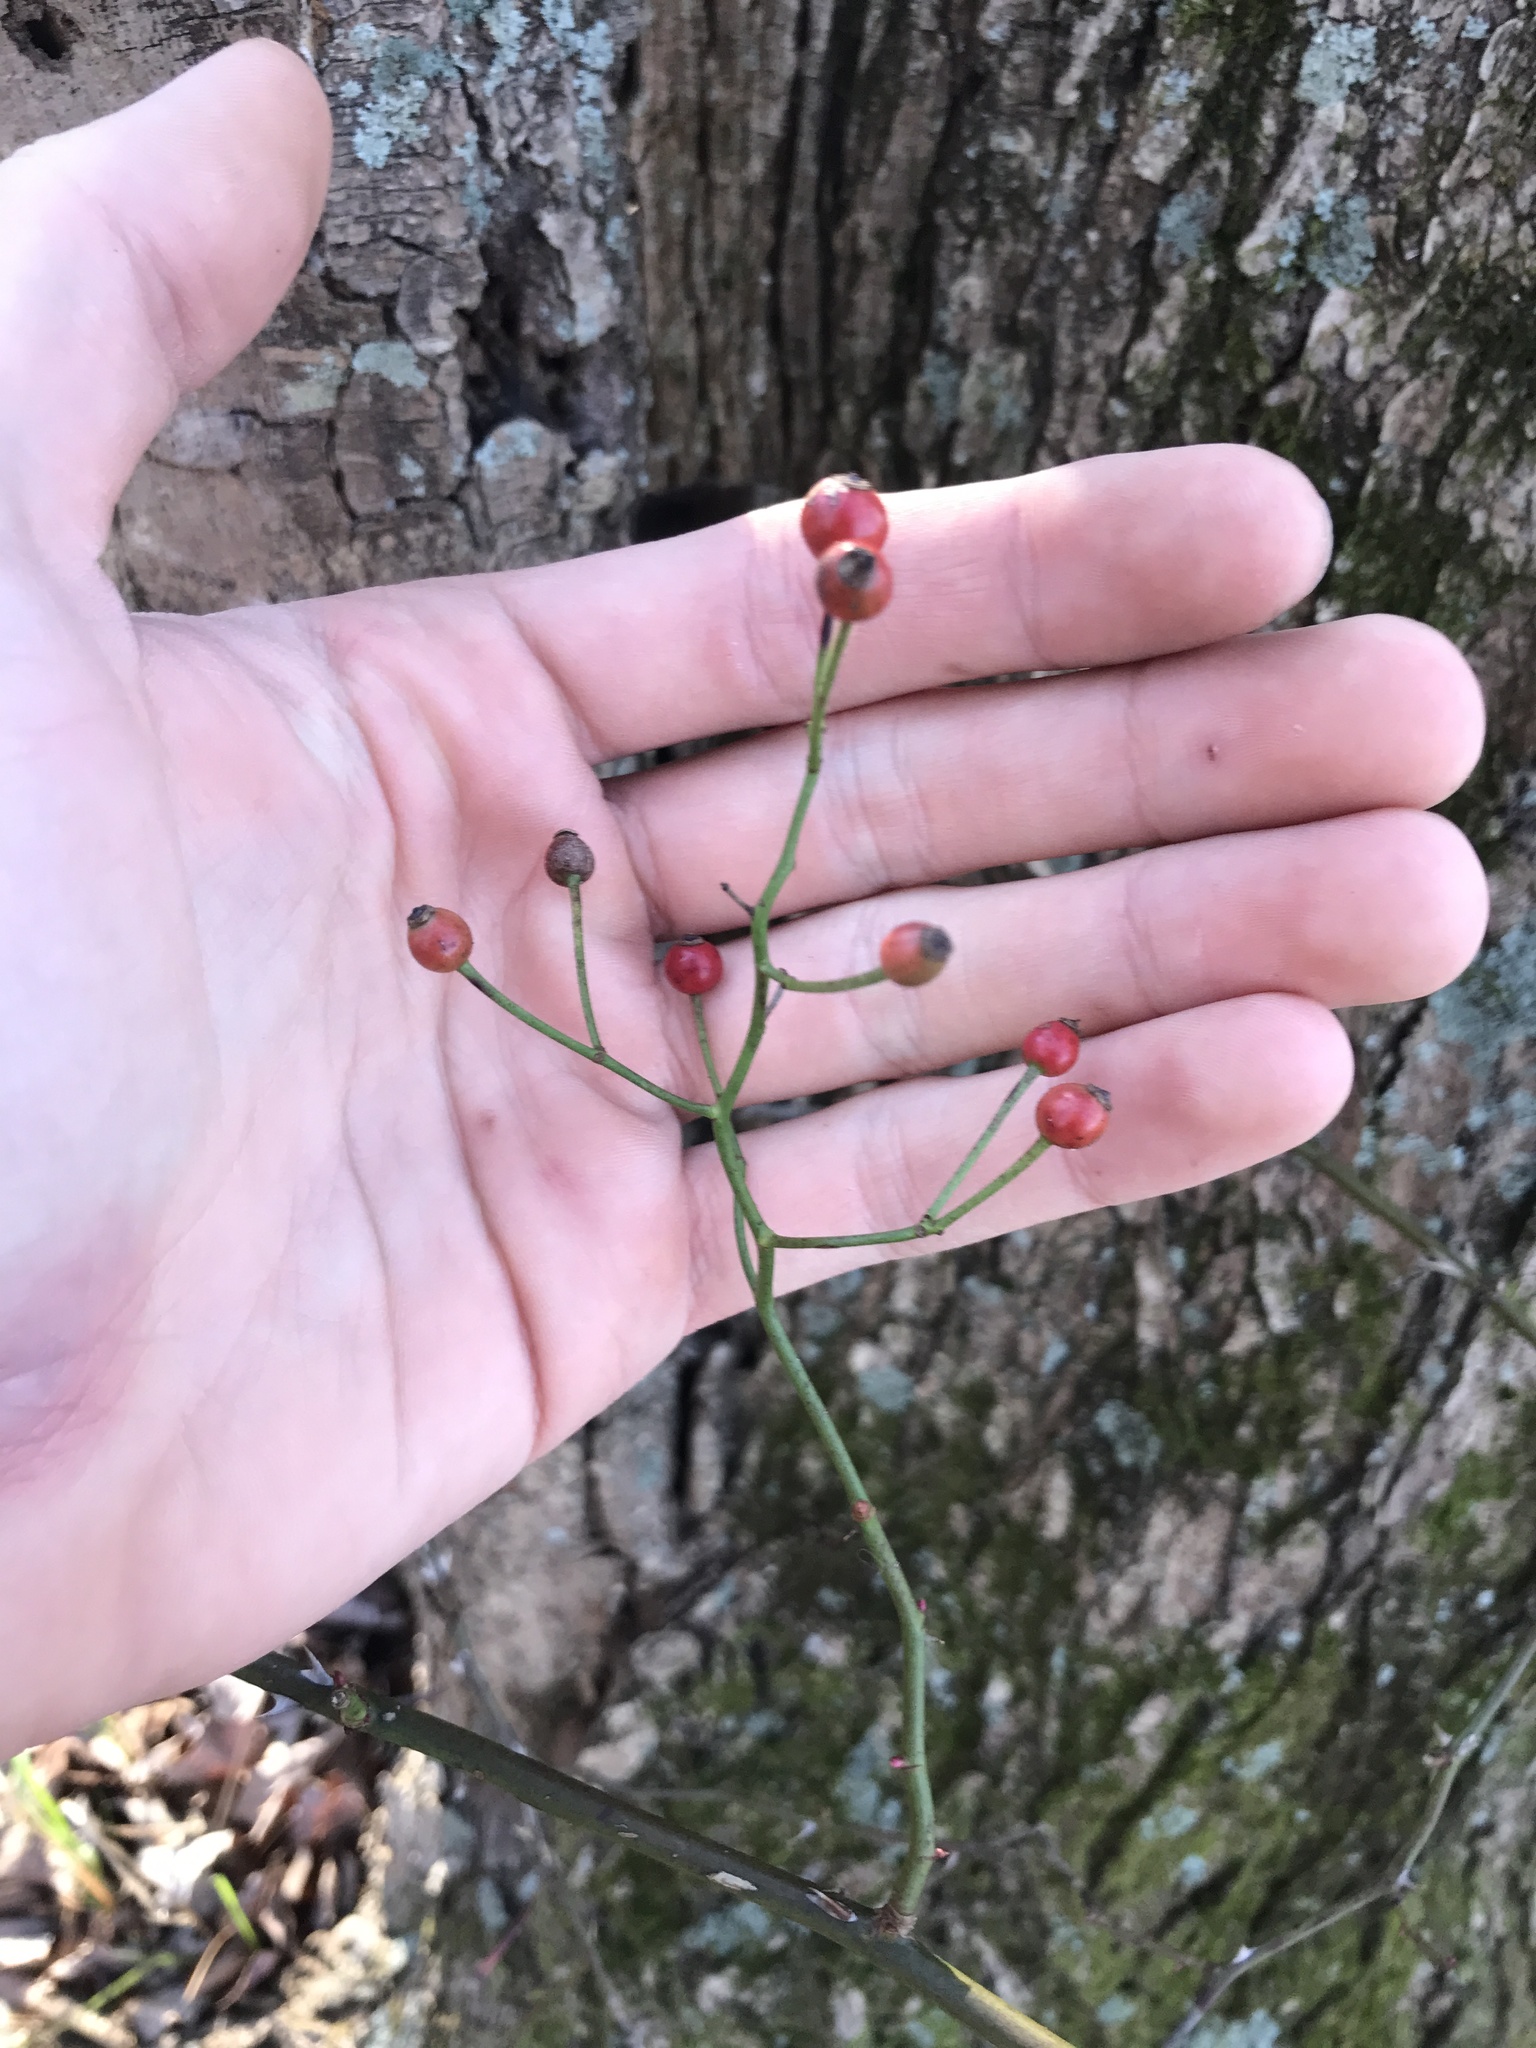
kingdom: Plantae
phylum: Tracheophyta
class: Magnoliopsida
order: Rosales
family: Rosaceae
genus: Rosa
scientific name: Rosa multiflora
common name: Multiflora rose
